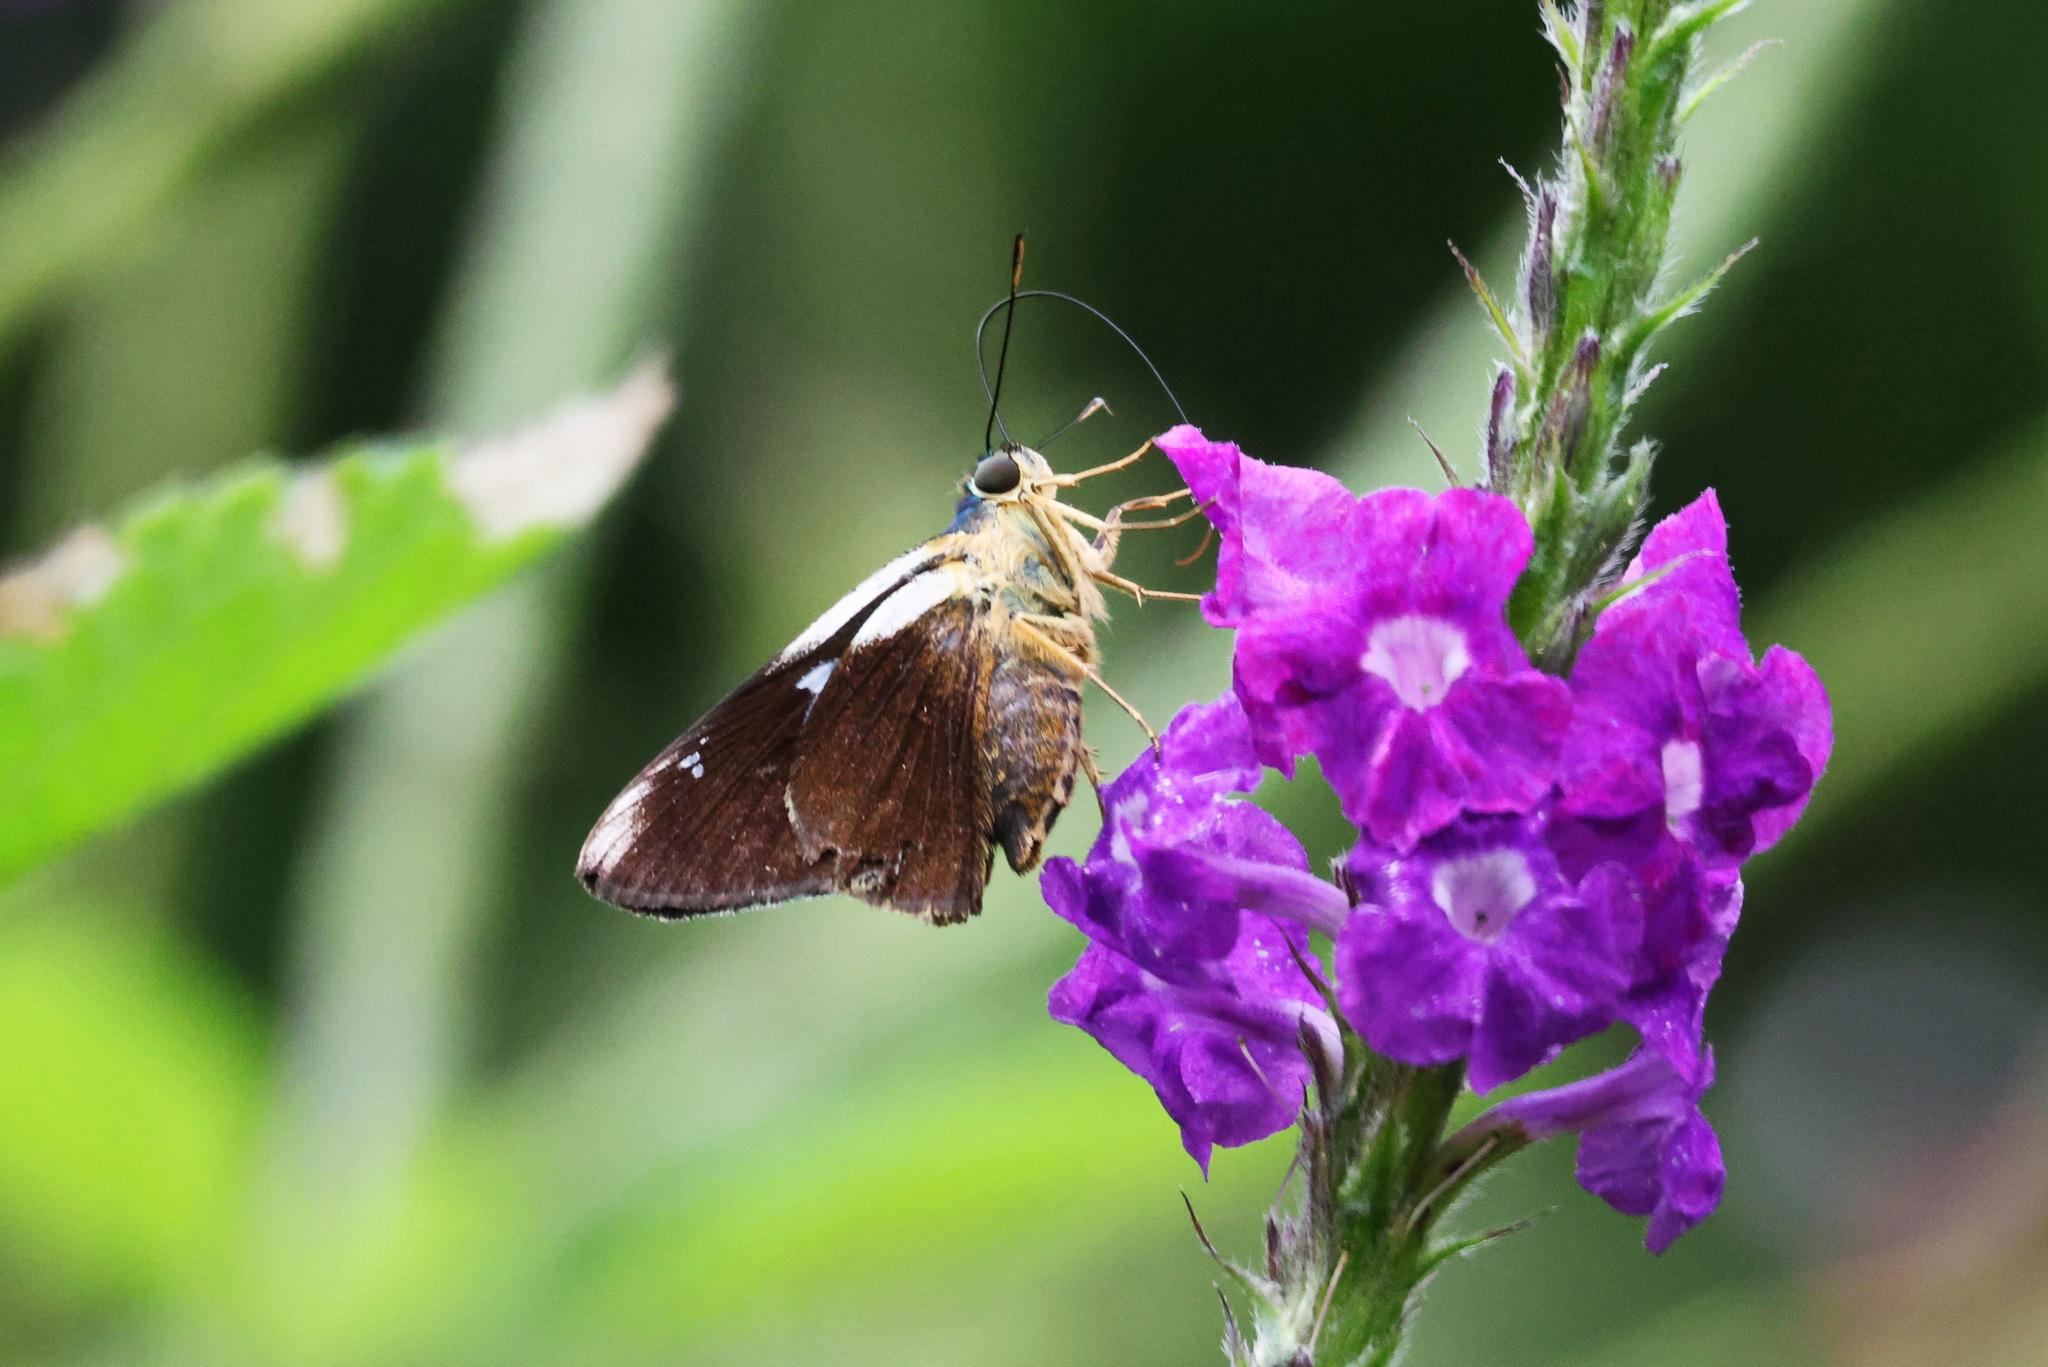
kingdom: Animalia
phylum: Arthropoda
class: Insecta
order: Lepidoptera
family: Hesperiidae
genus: Rhinthon
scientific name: Rhinthon molion
